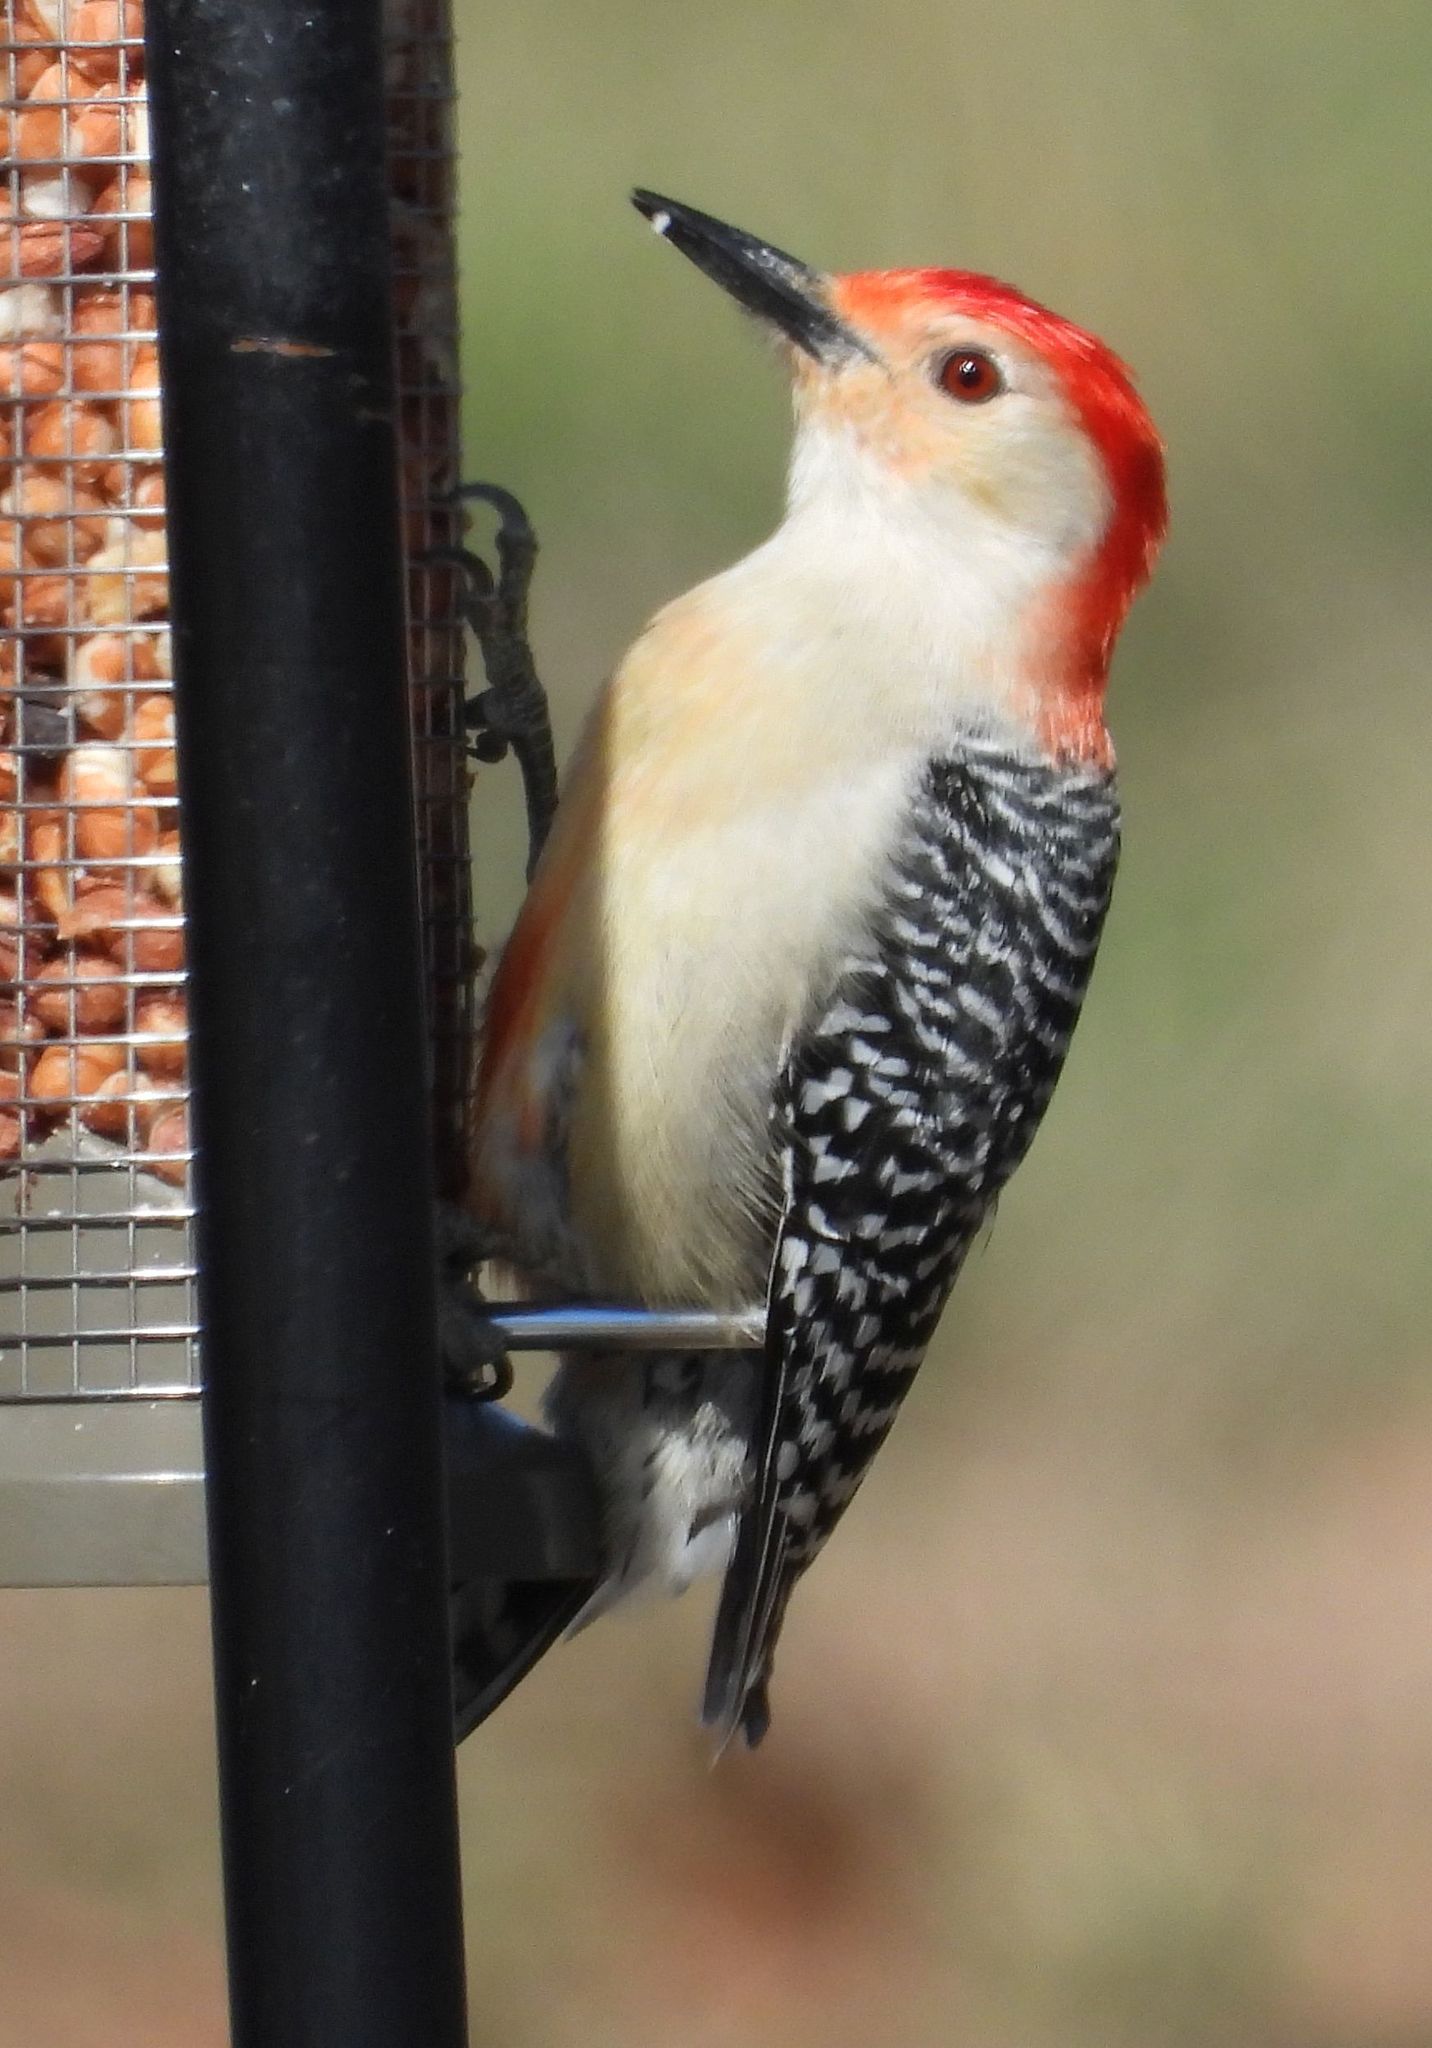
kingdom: Animalia
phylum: Chordata
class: Aves
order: Piciformes
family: Picidae
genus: Melanerpes
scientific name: Melanerpes carolinus
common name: Red-bellied woodpecker
